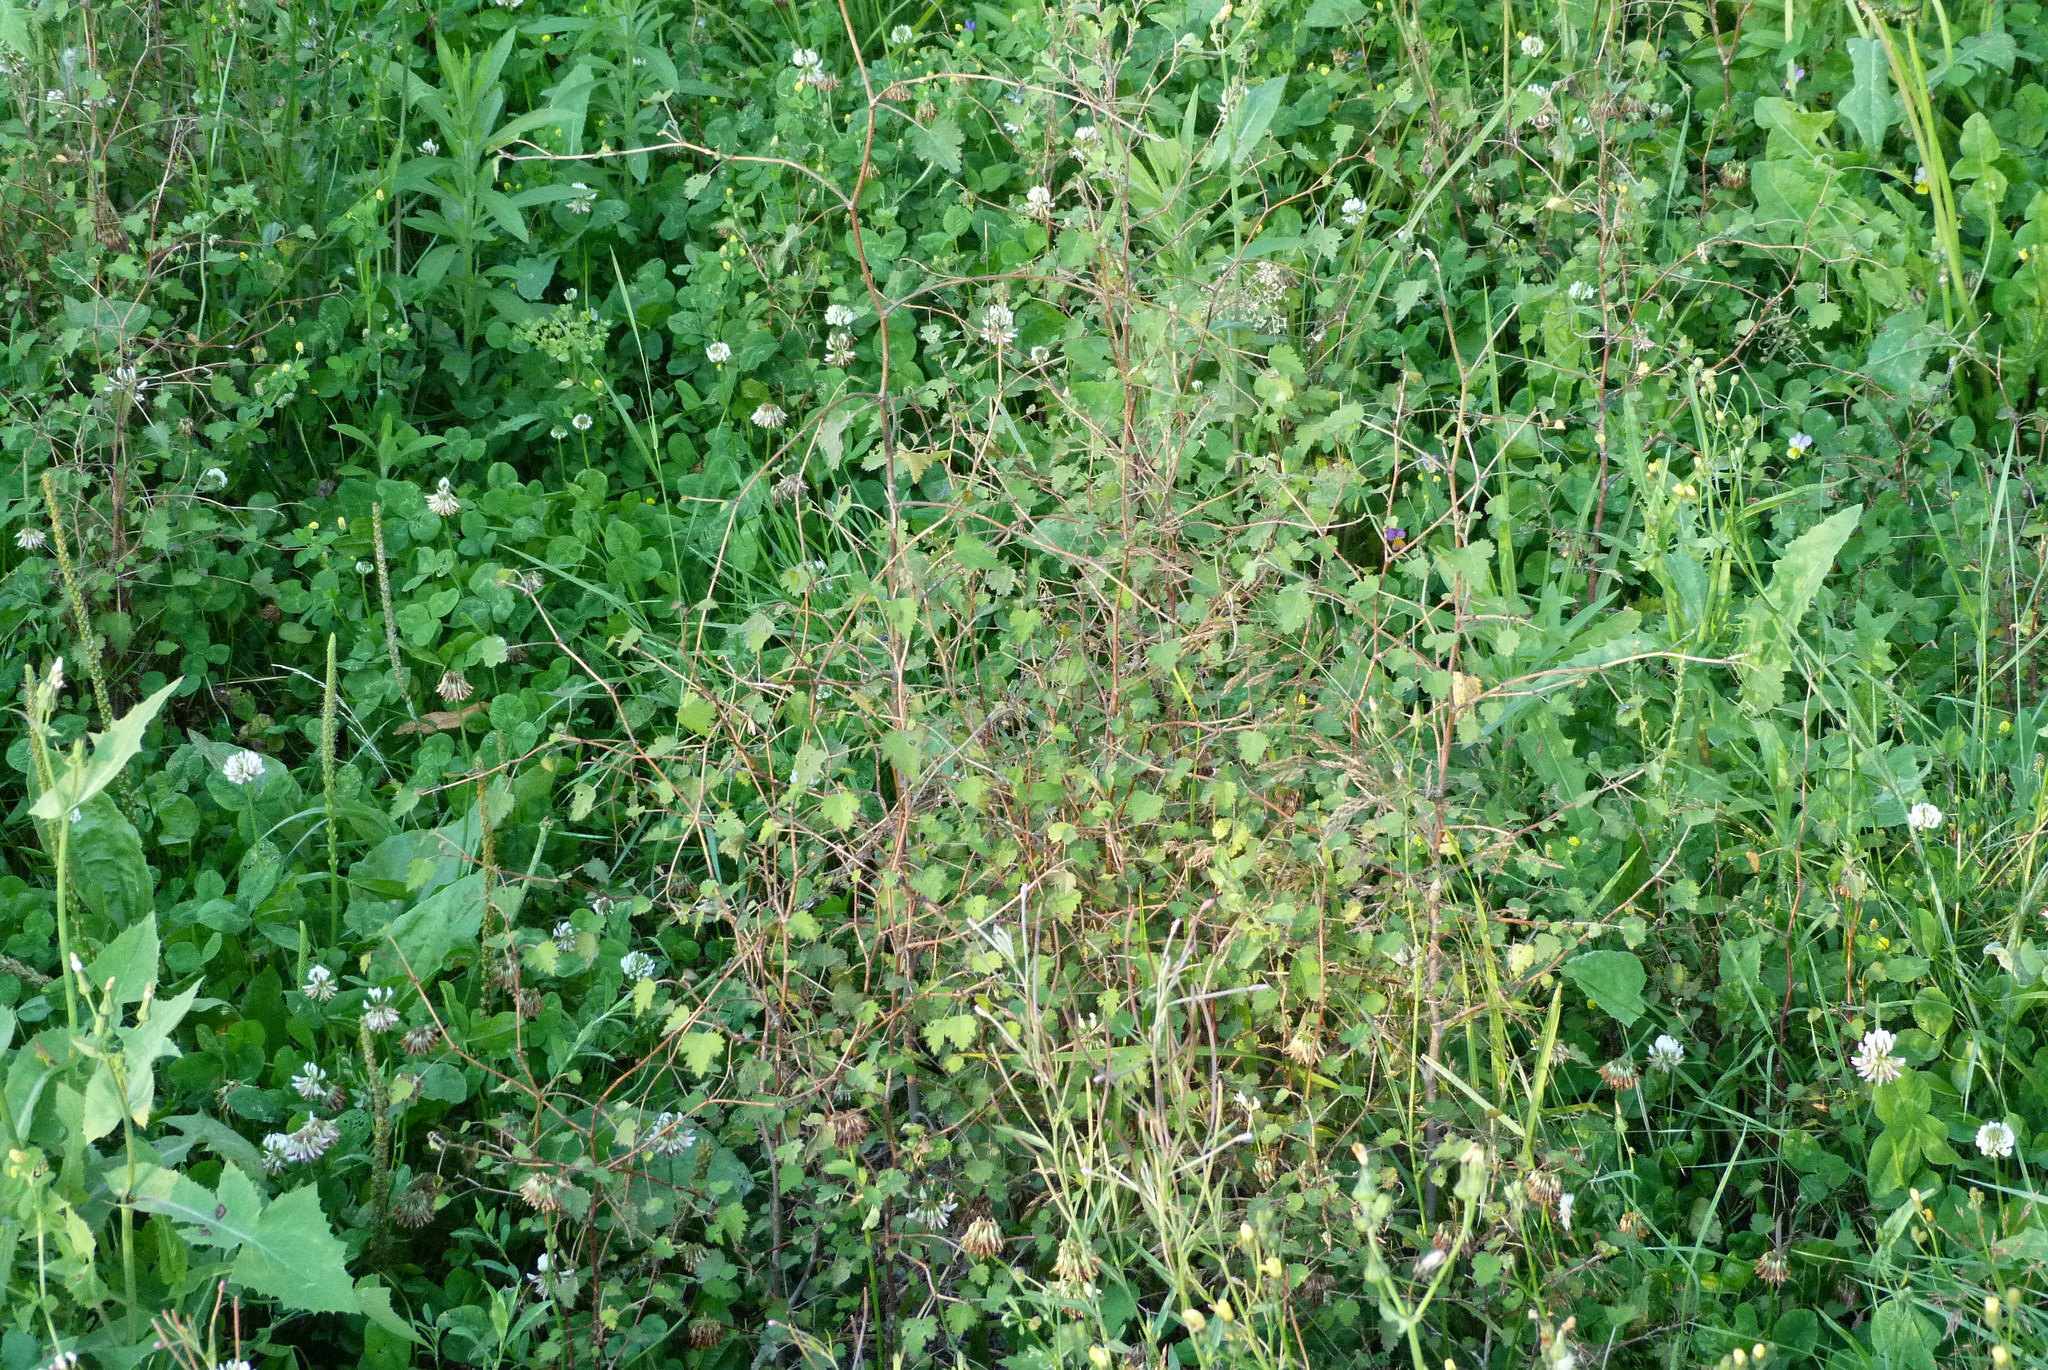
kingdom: Plantae
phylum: Tracheophyta
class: Magnoliopsida
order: Malvales
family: Malvaceae
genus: Plagianthus
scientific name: Plagianthus regius
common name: Manatu
